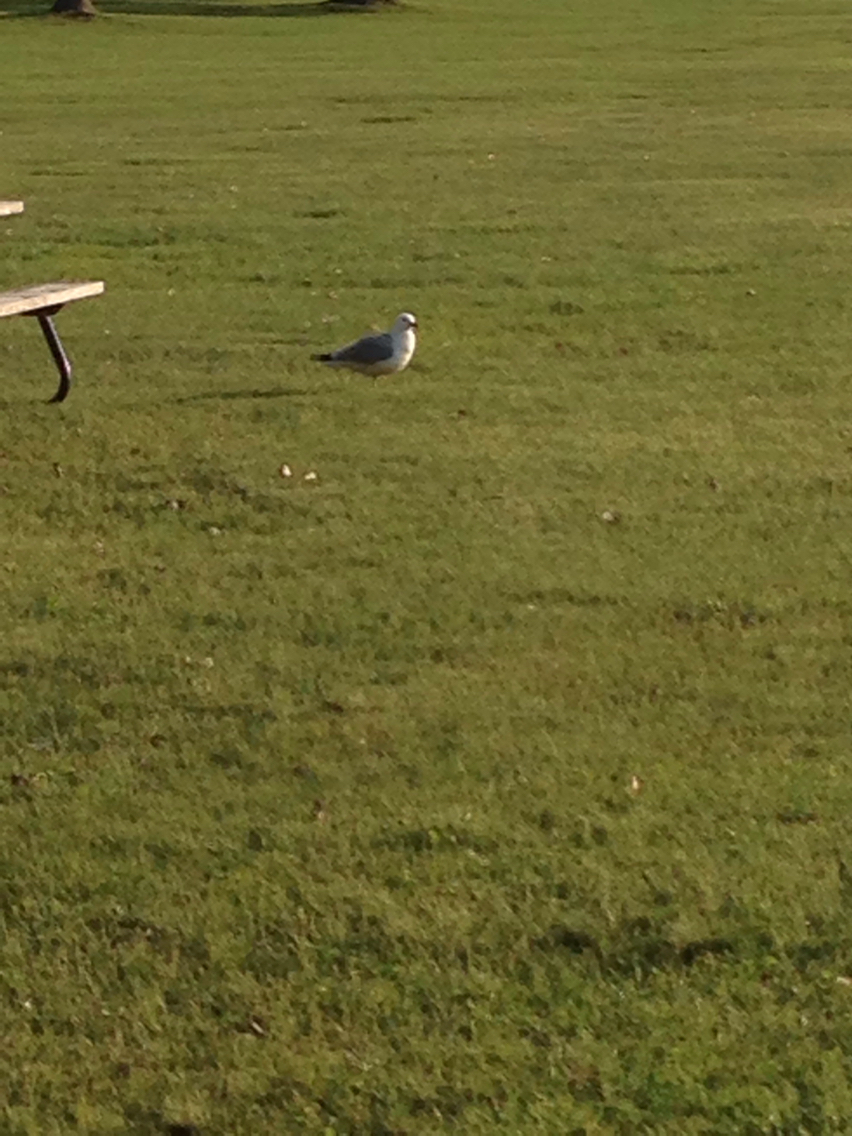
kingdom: Animalia
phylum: Chordata
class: Aves
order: Charadriiformes
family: Laridae
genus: Larus
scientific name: Larus delawarensis
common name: Ring-billed gull
